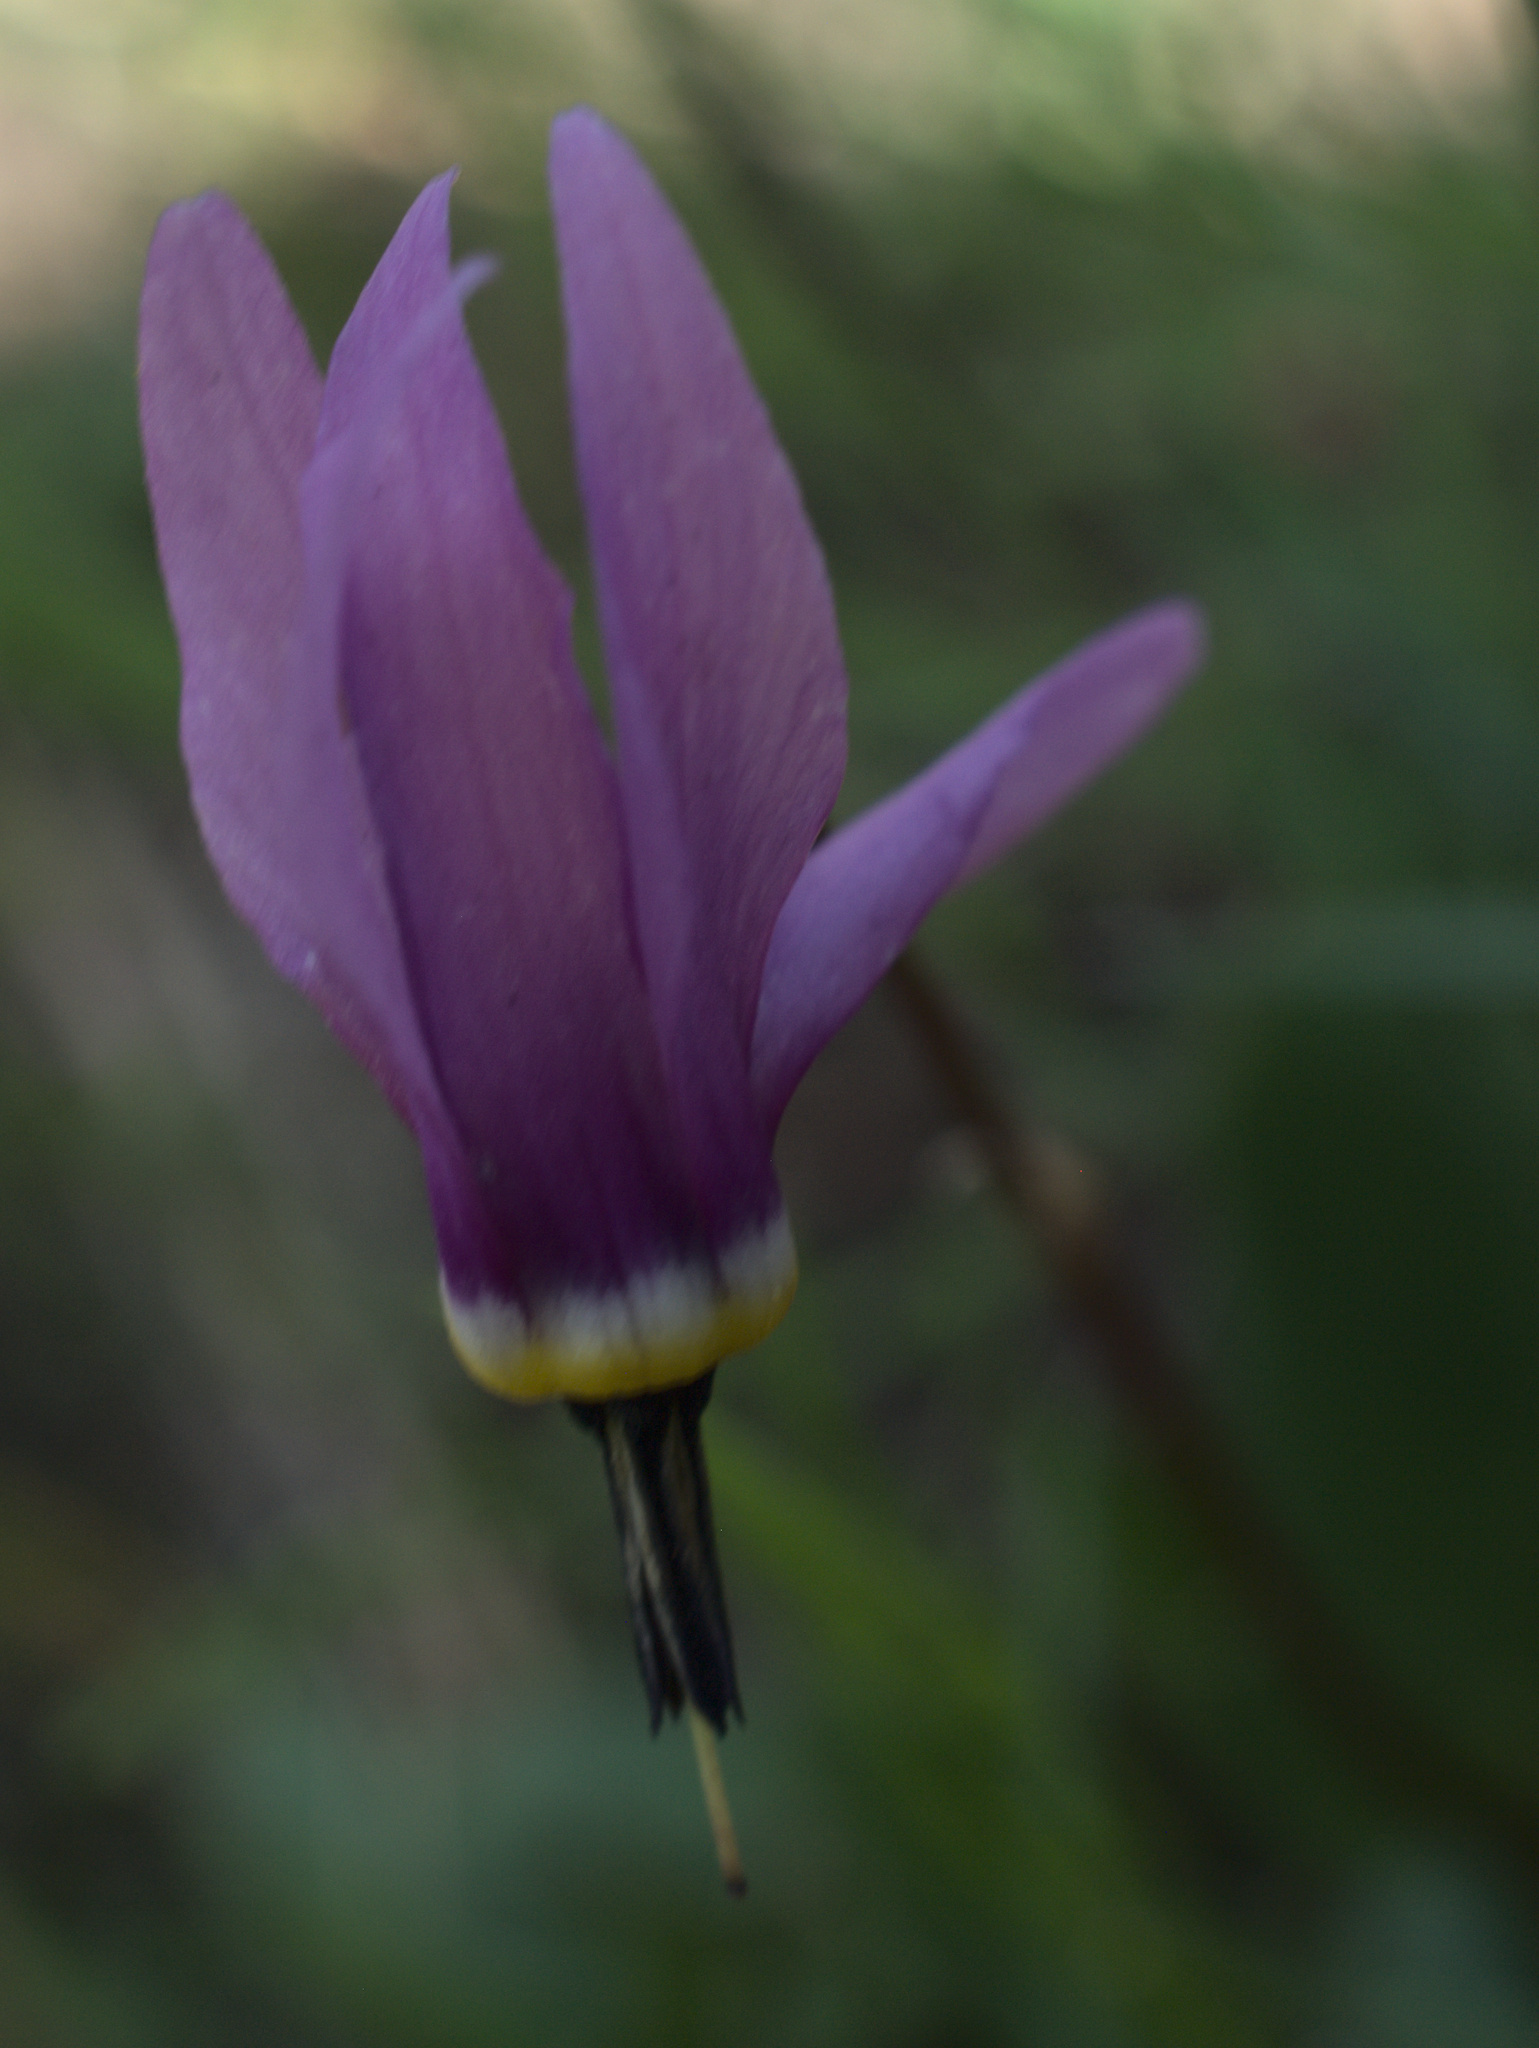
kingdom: Plantae
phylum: Tracheophyta
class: Magnoliopsida
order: Ericales
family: Primulaceae
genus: Dodecatheon
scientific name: Dodecatheon conjugens
